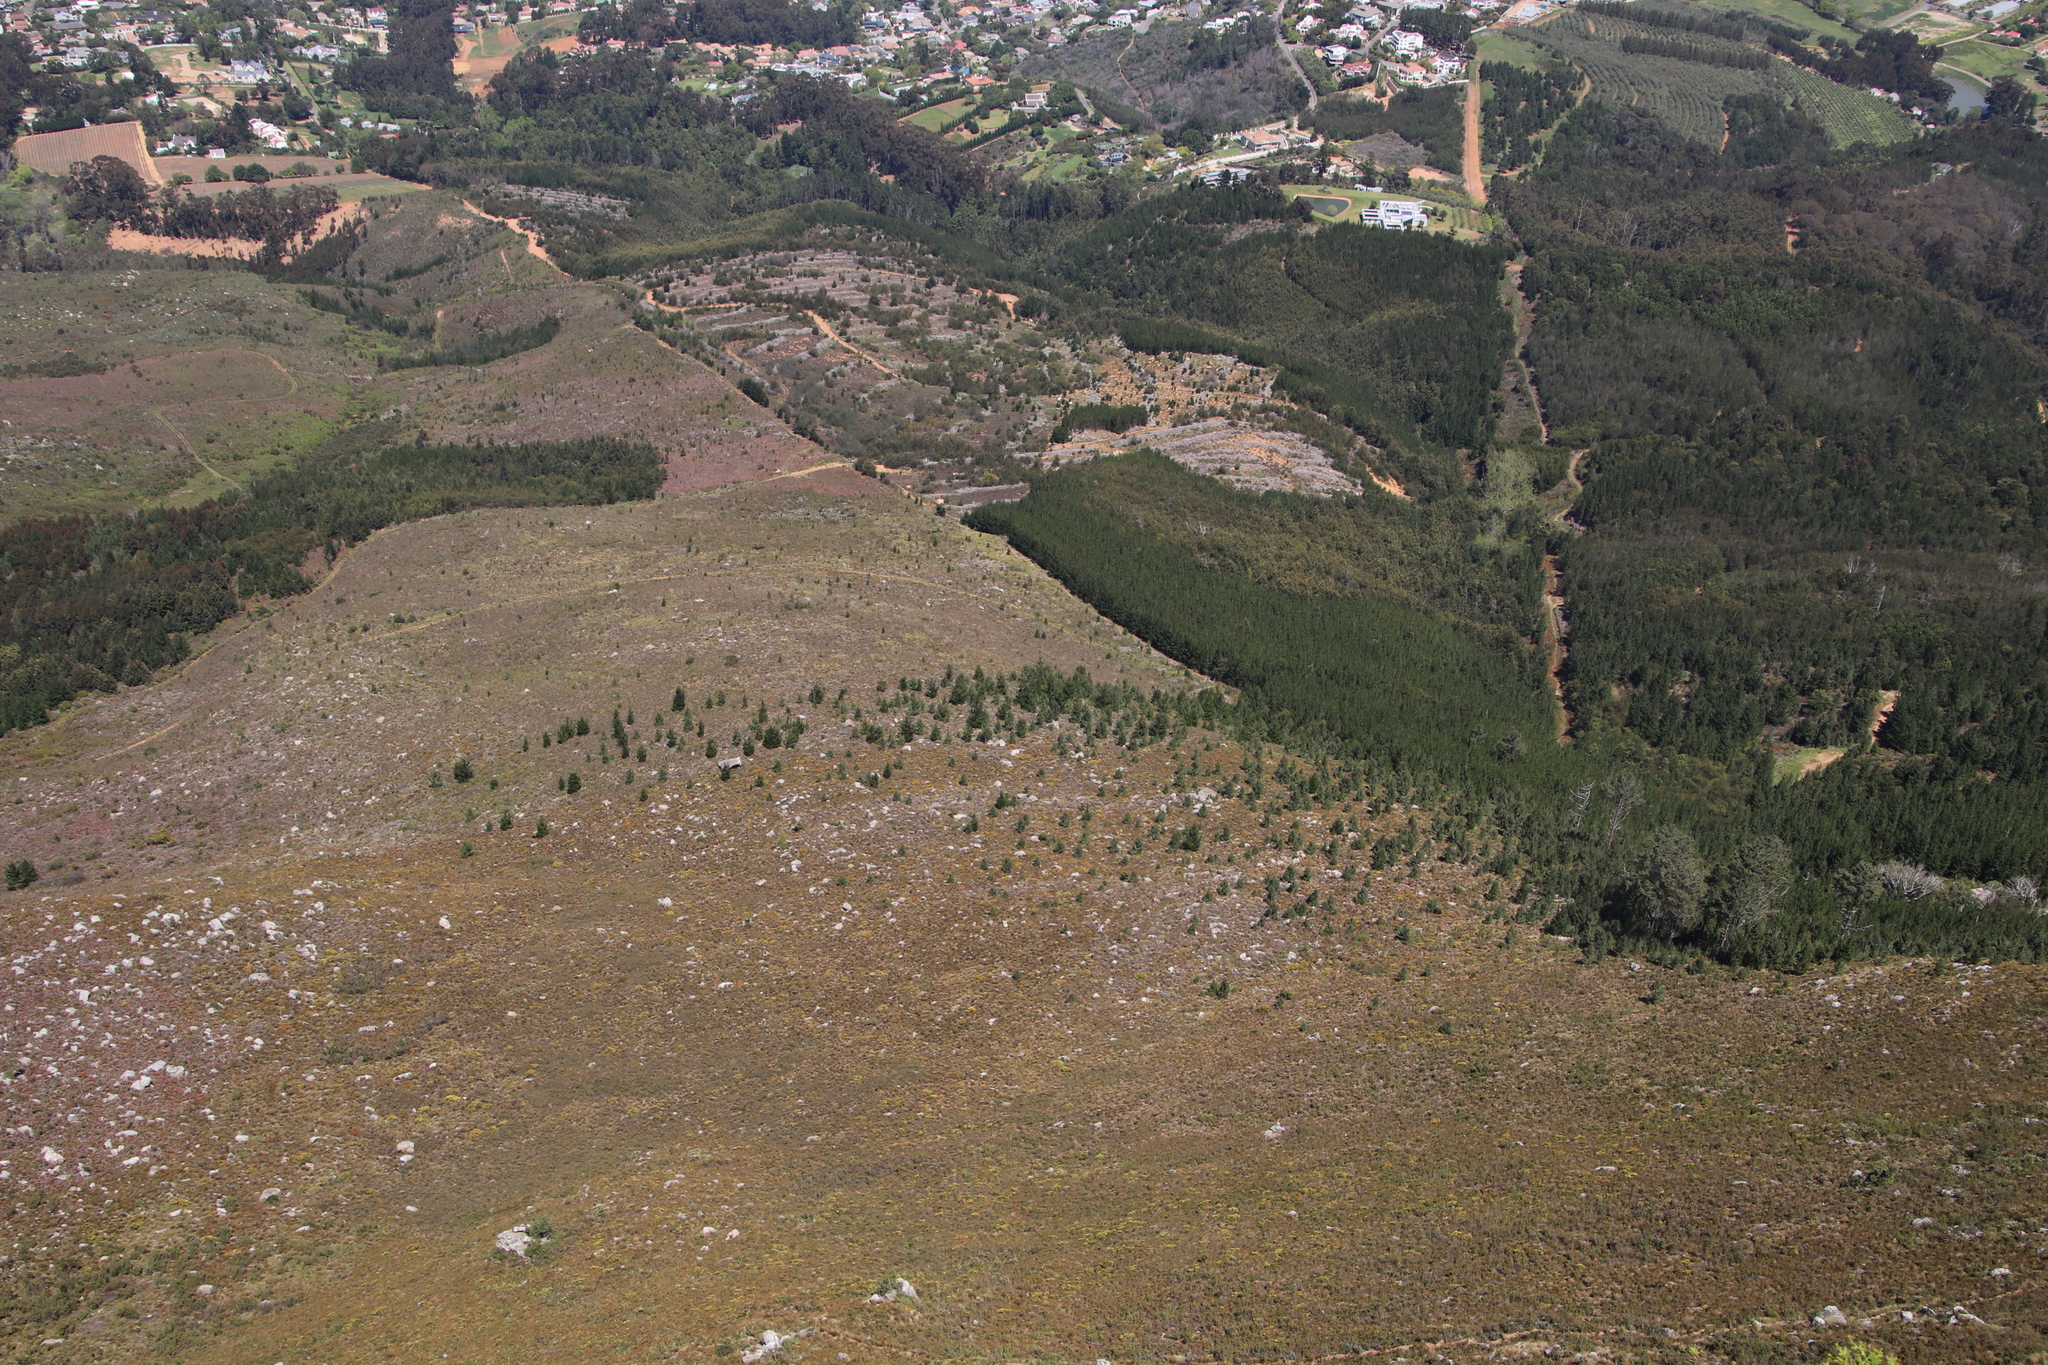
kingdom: Plantae
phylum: Tracheophyta
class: Pinopsida
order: Pinales
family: Pinaceae
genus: Pinus
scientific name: Pinus pinaster
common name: Maritime pine
